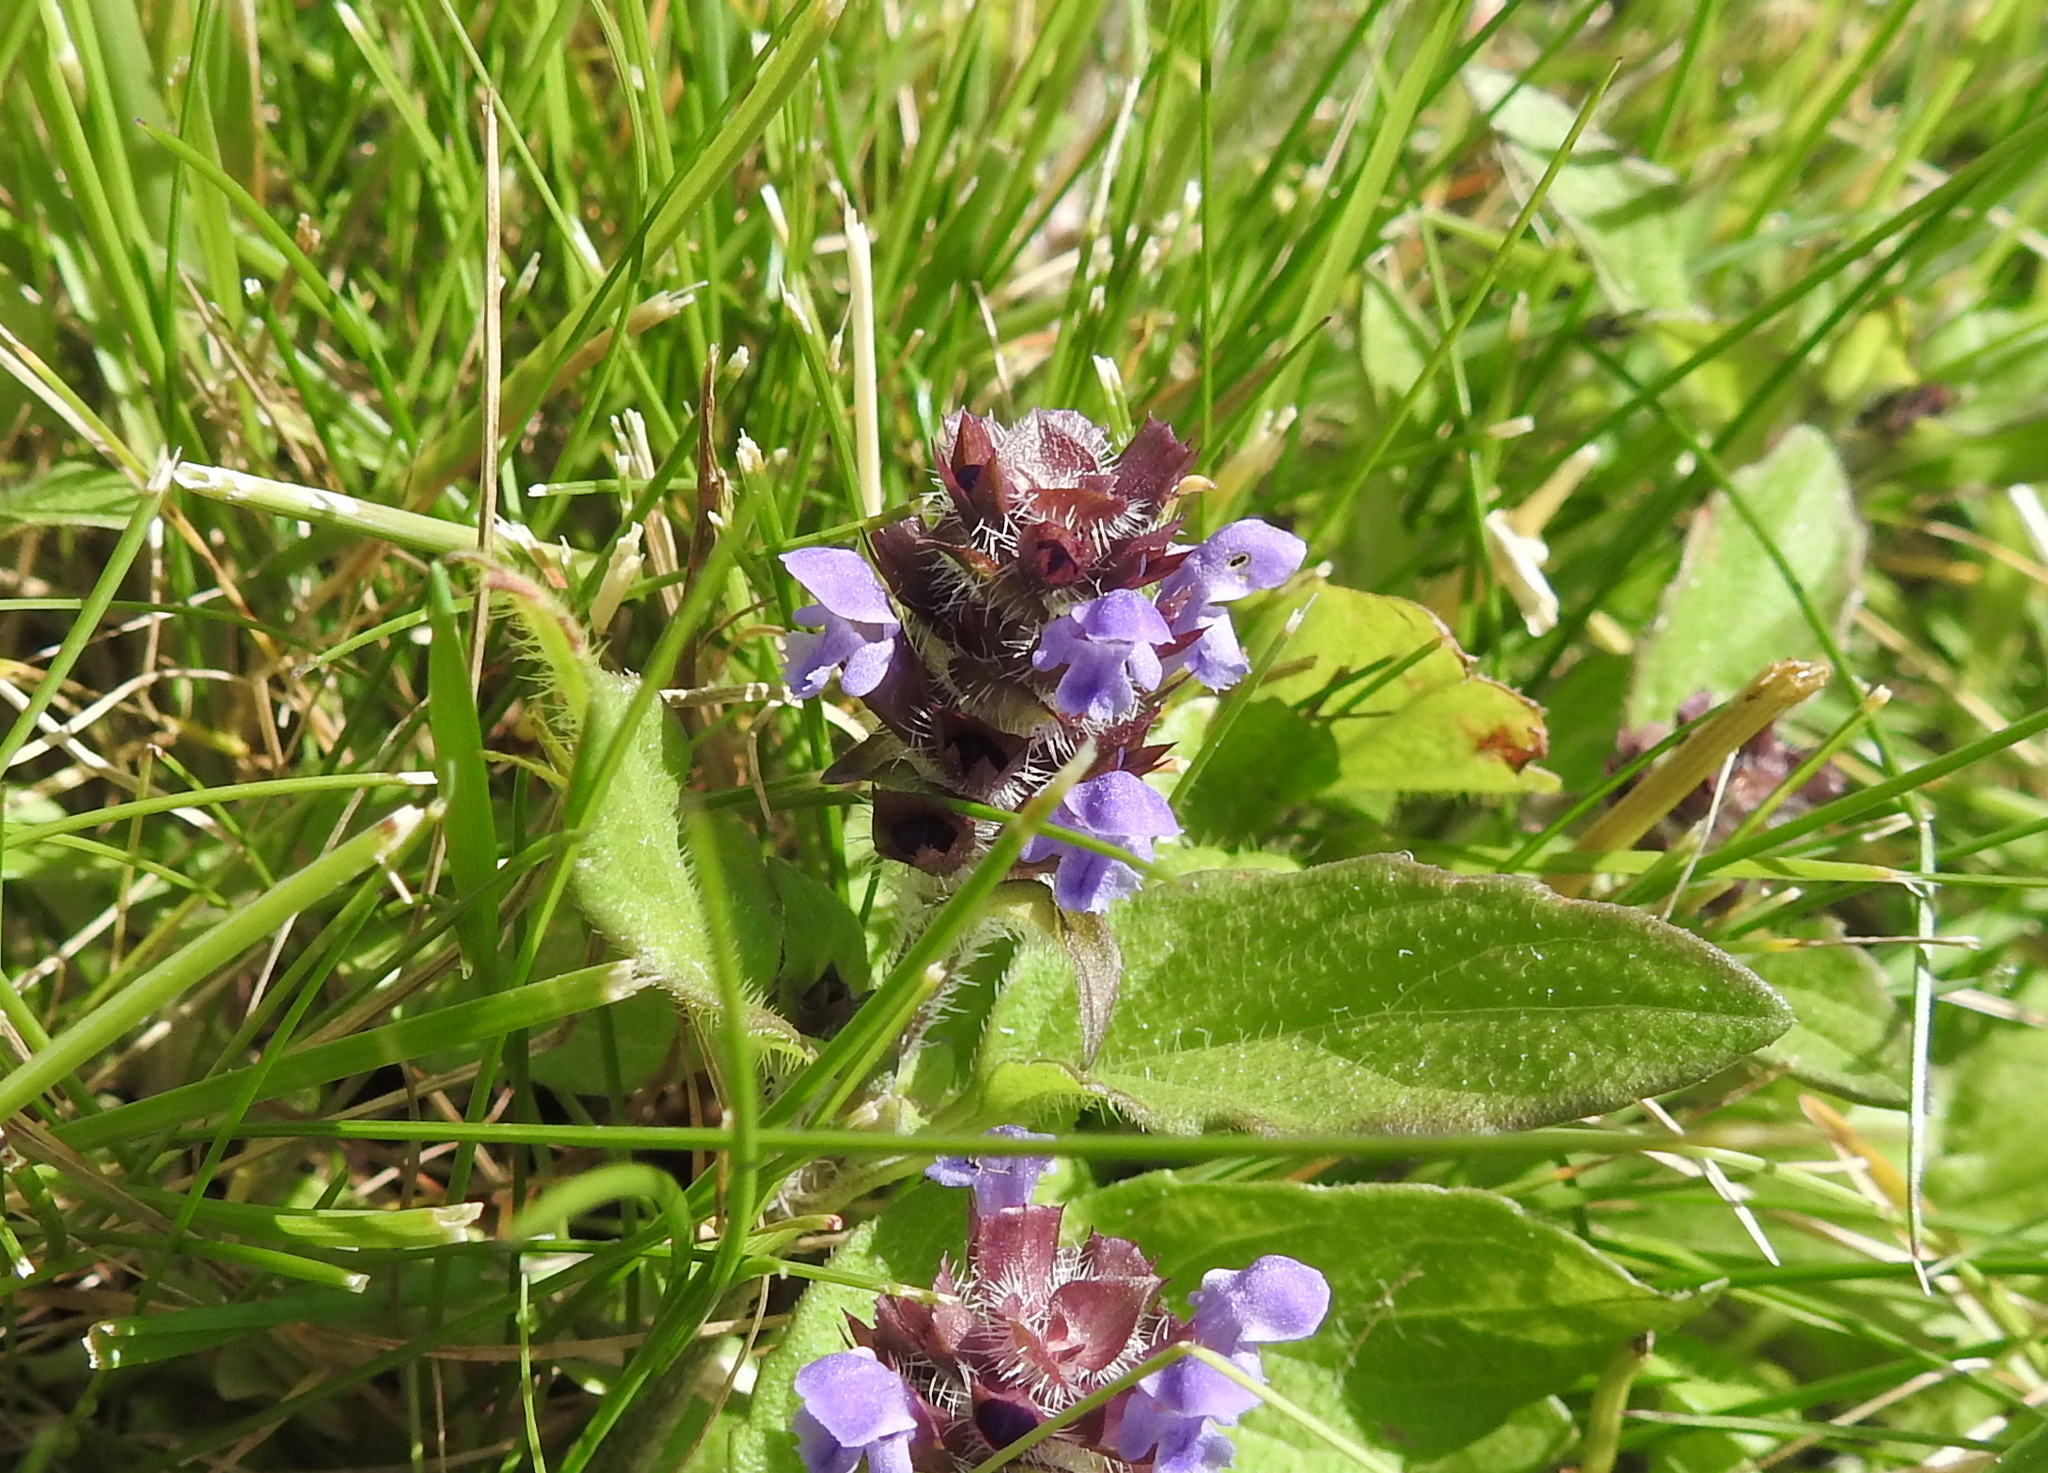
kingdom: Plantae
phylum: Tracheophyta
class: Magnoliopsida
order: Lamiales
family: Lamiaceae
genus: Prunella
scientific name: Prunella vulgaris
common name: Heal-all
